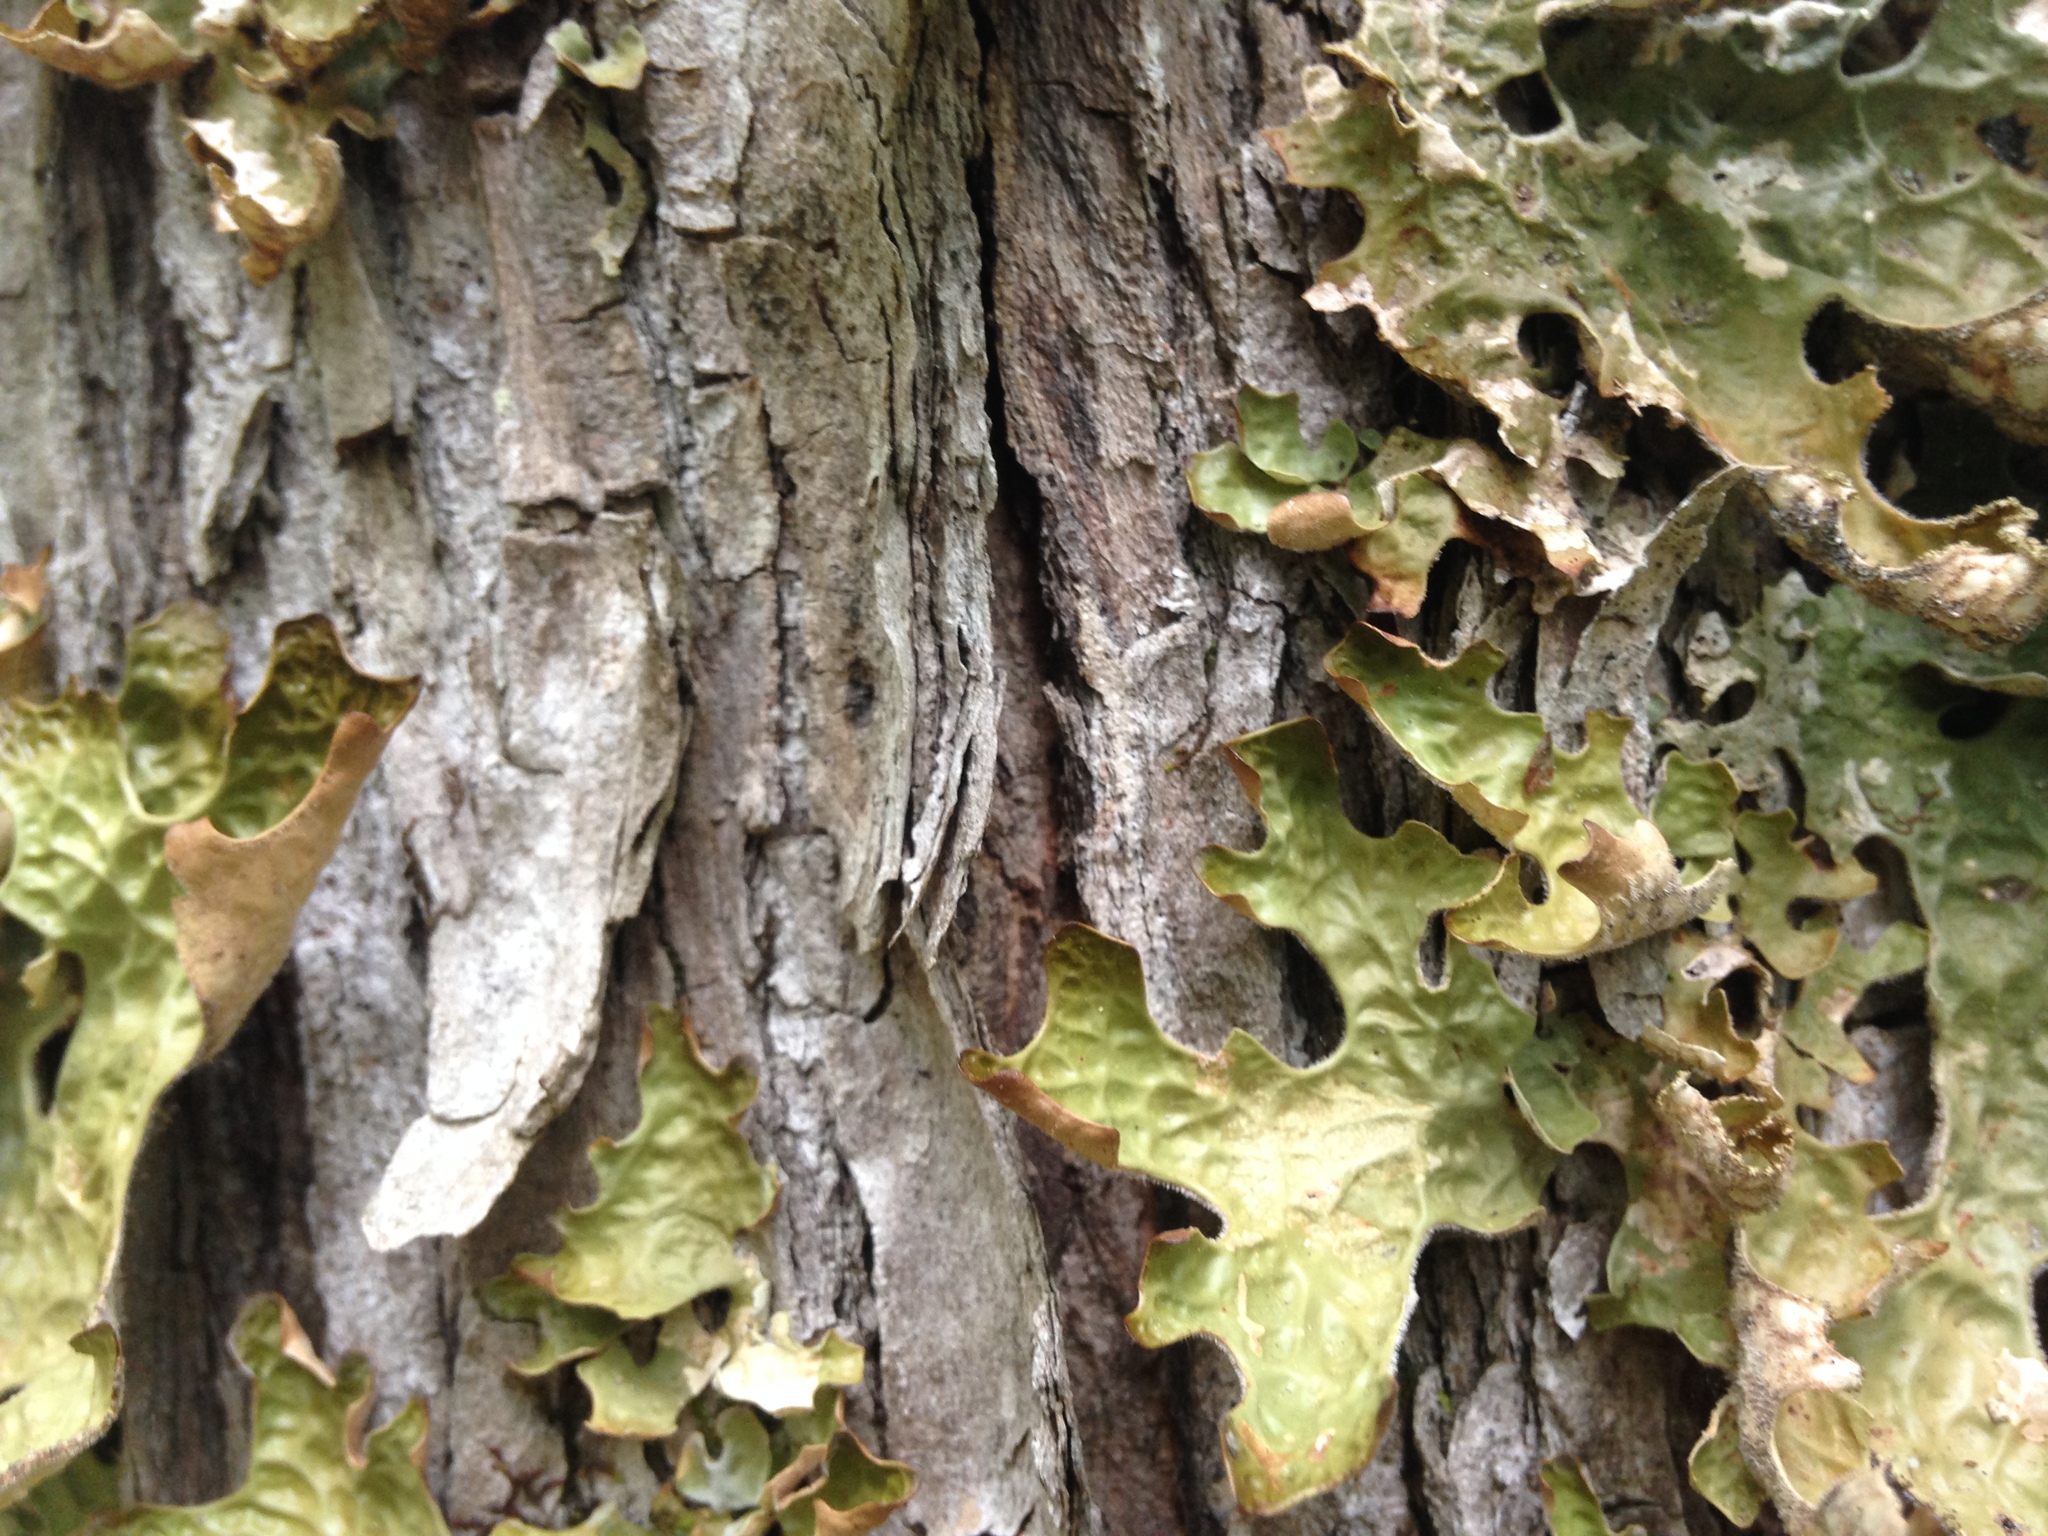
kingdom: Fungi
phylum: Ascomycota
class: Lecanoromycetes
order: Peltigerales
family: Lobariaceae
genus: Lobaria
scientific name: Lobaria pulmonaria
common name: Lungwort
